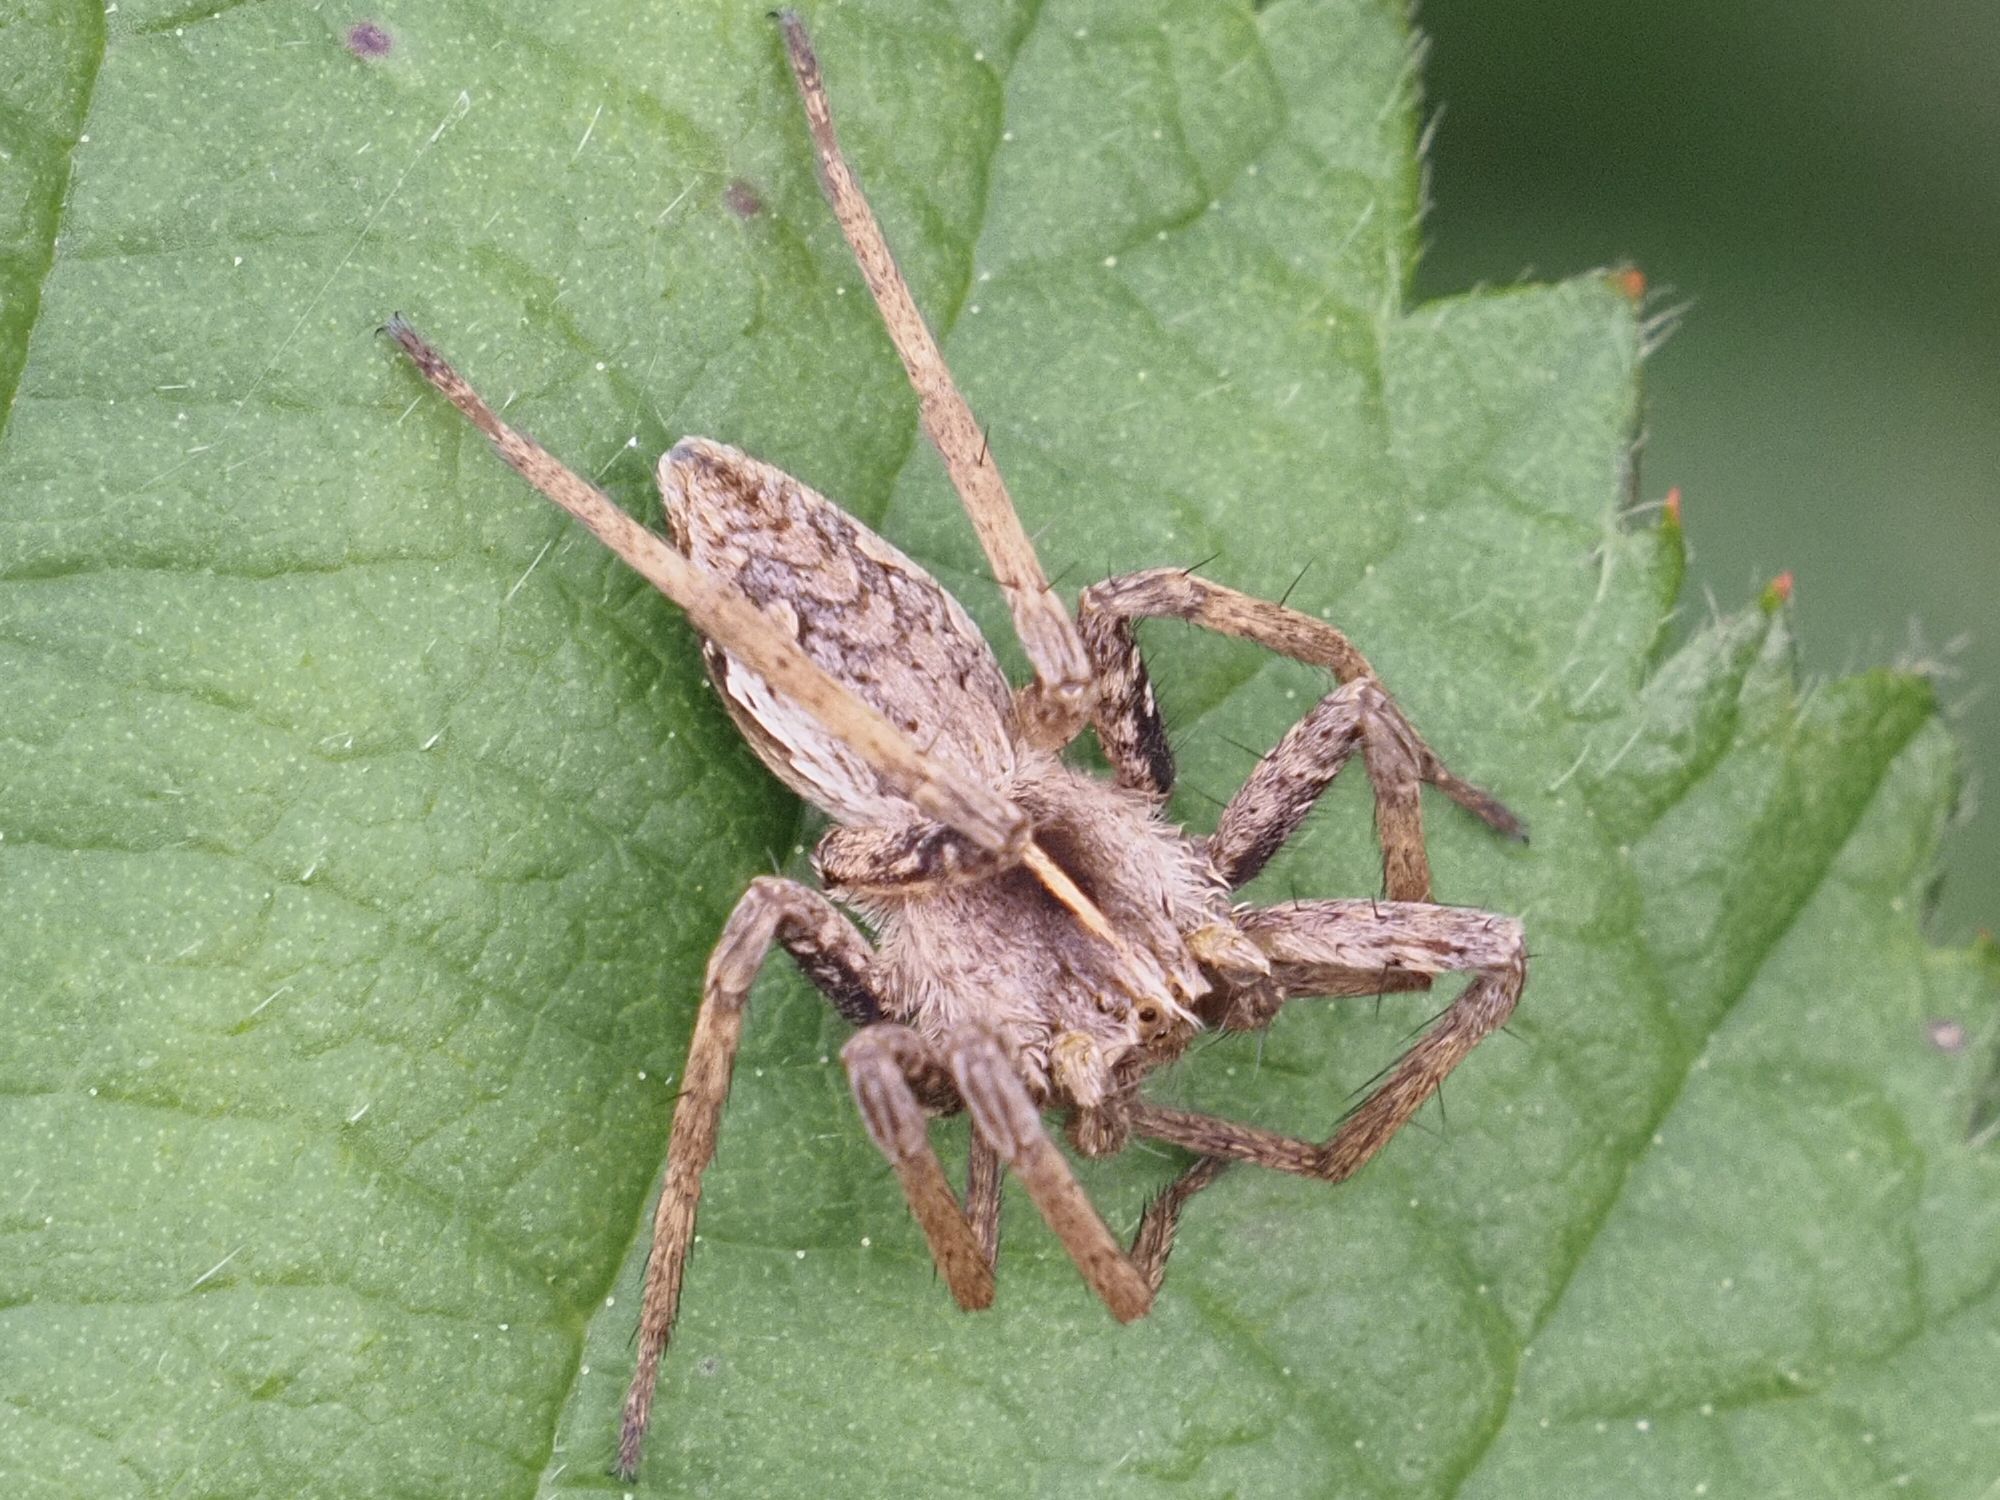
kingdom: Animalia
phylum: Arthropoda
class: Arachnida
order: Araneae
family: Pisauridae
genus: Pisaura
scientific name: Pisaura mirabilis
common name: Tent spider
